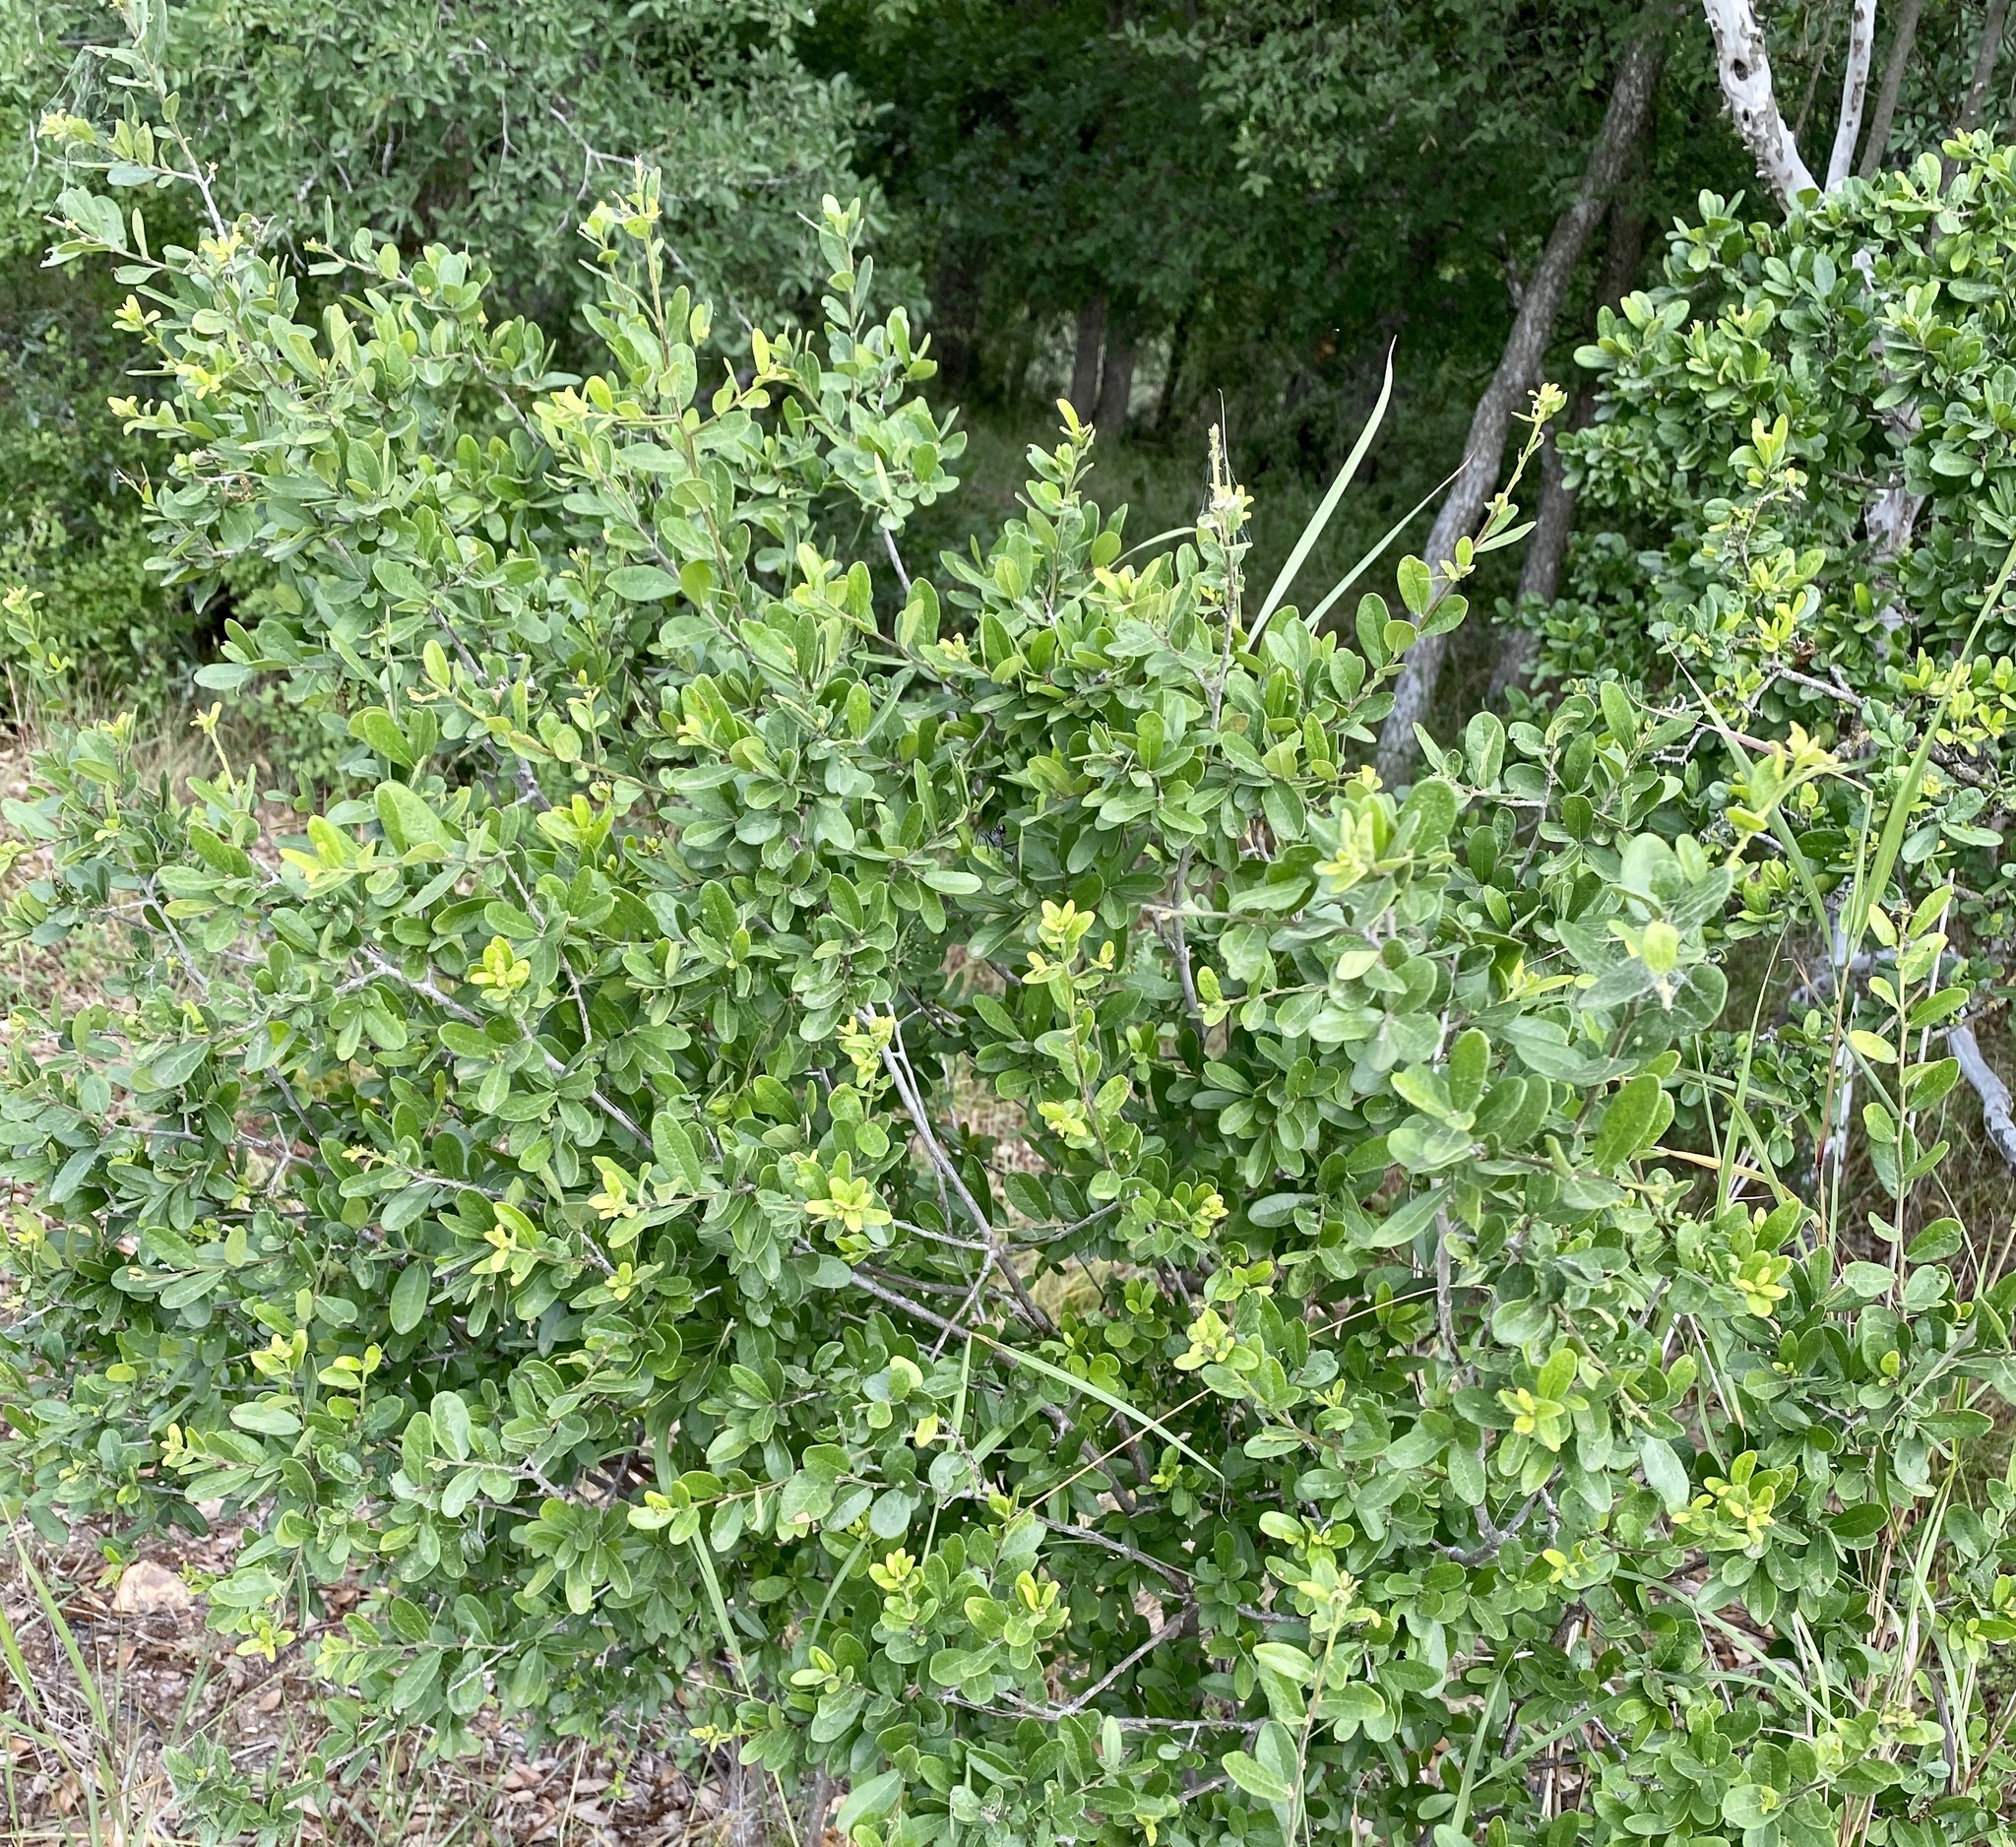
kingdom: Plantae
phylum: Tracheophyta
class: Magnoliopsida
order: Ericales
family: Ebenaceae
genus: Diospyros
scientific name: Diospyros texana
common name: Texas persimmon
